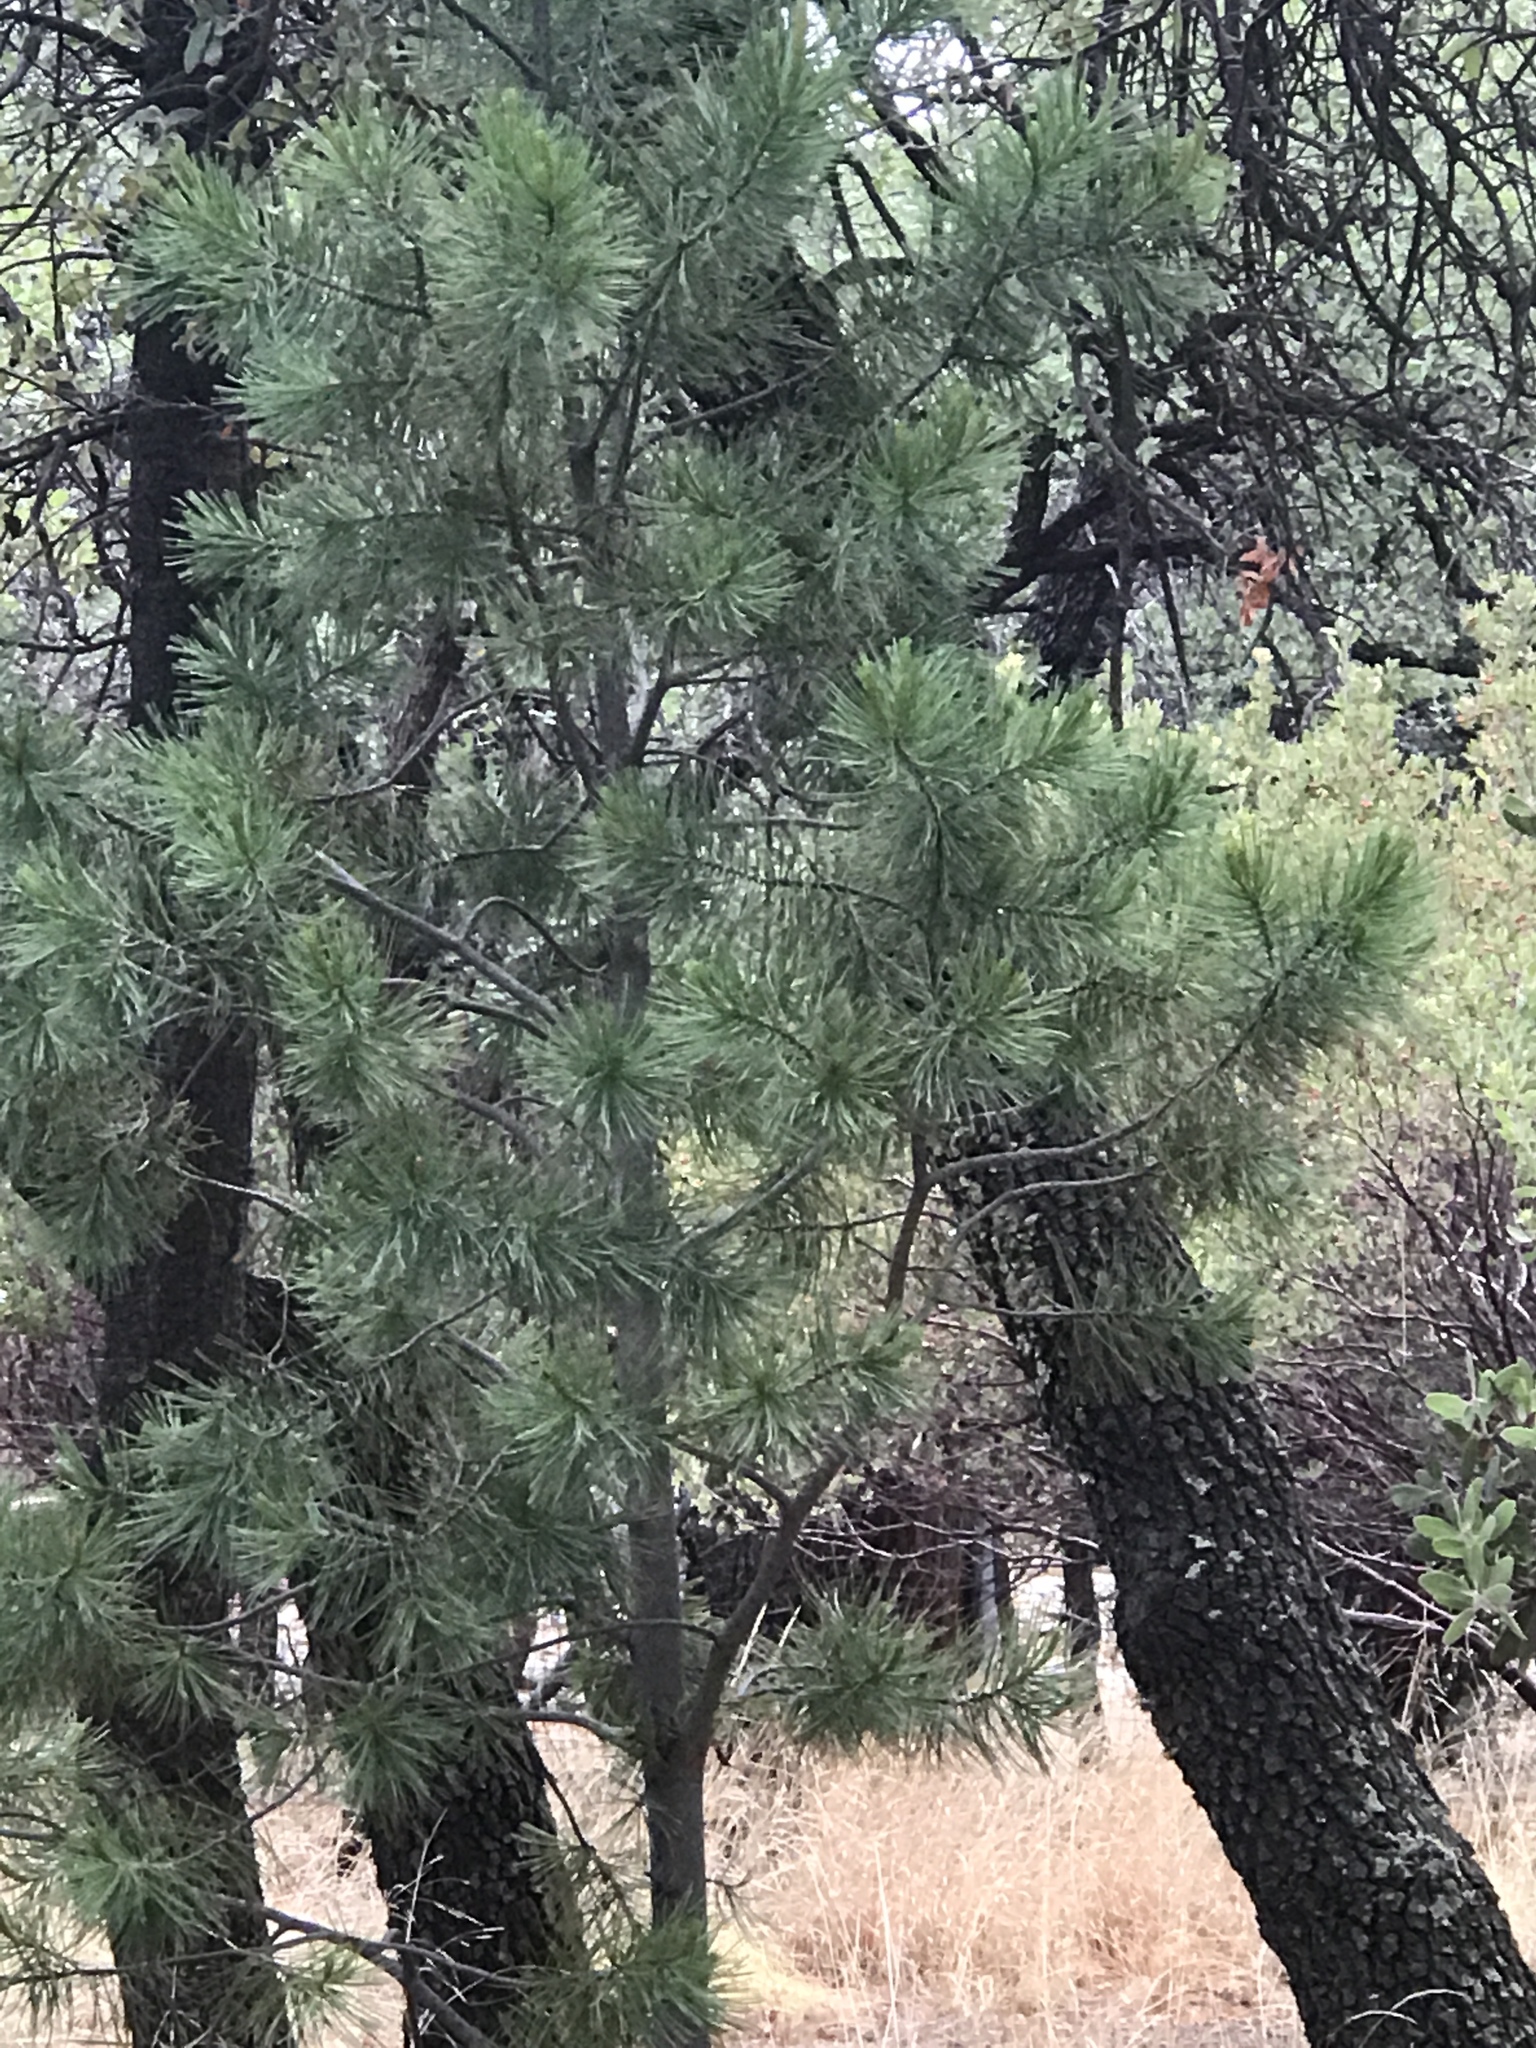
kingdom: Plantae
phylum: Tracheophyta
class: Pinopsida
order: Pinales
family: Pinaceae
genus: Pinus
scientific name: Pinus strobiformis
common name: Southwestern white pine
